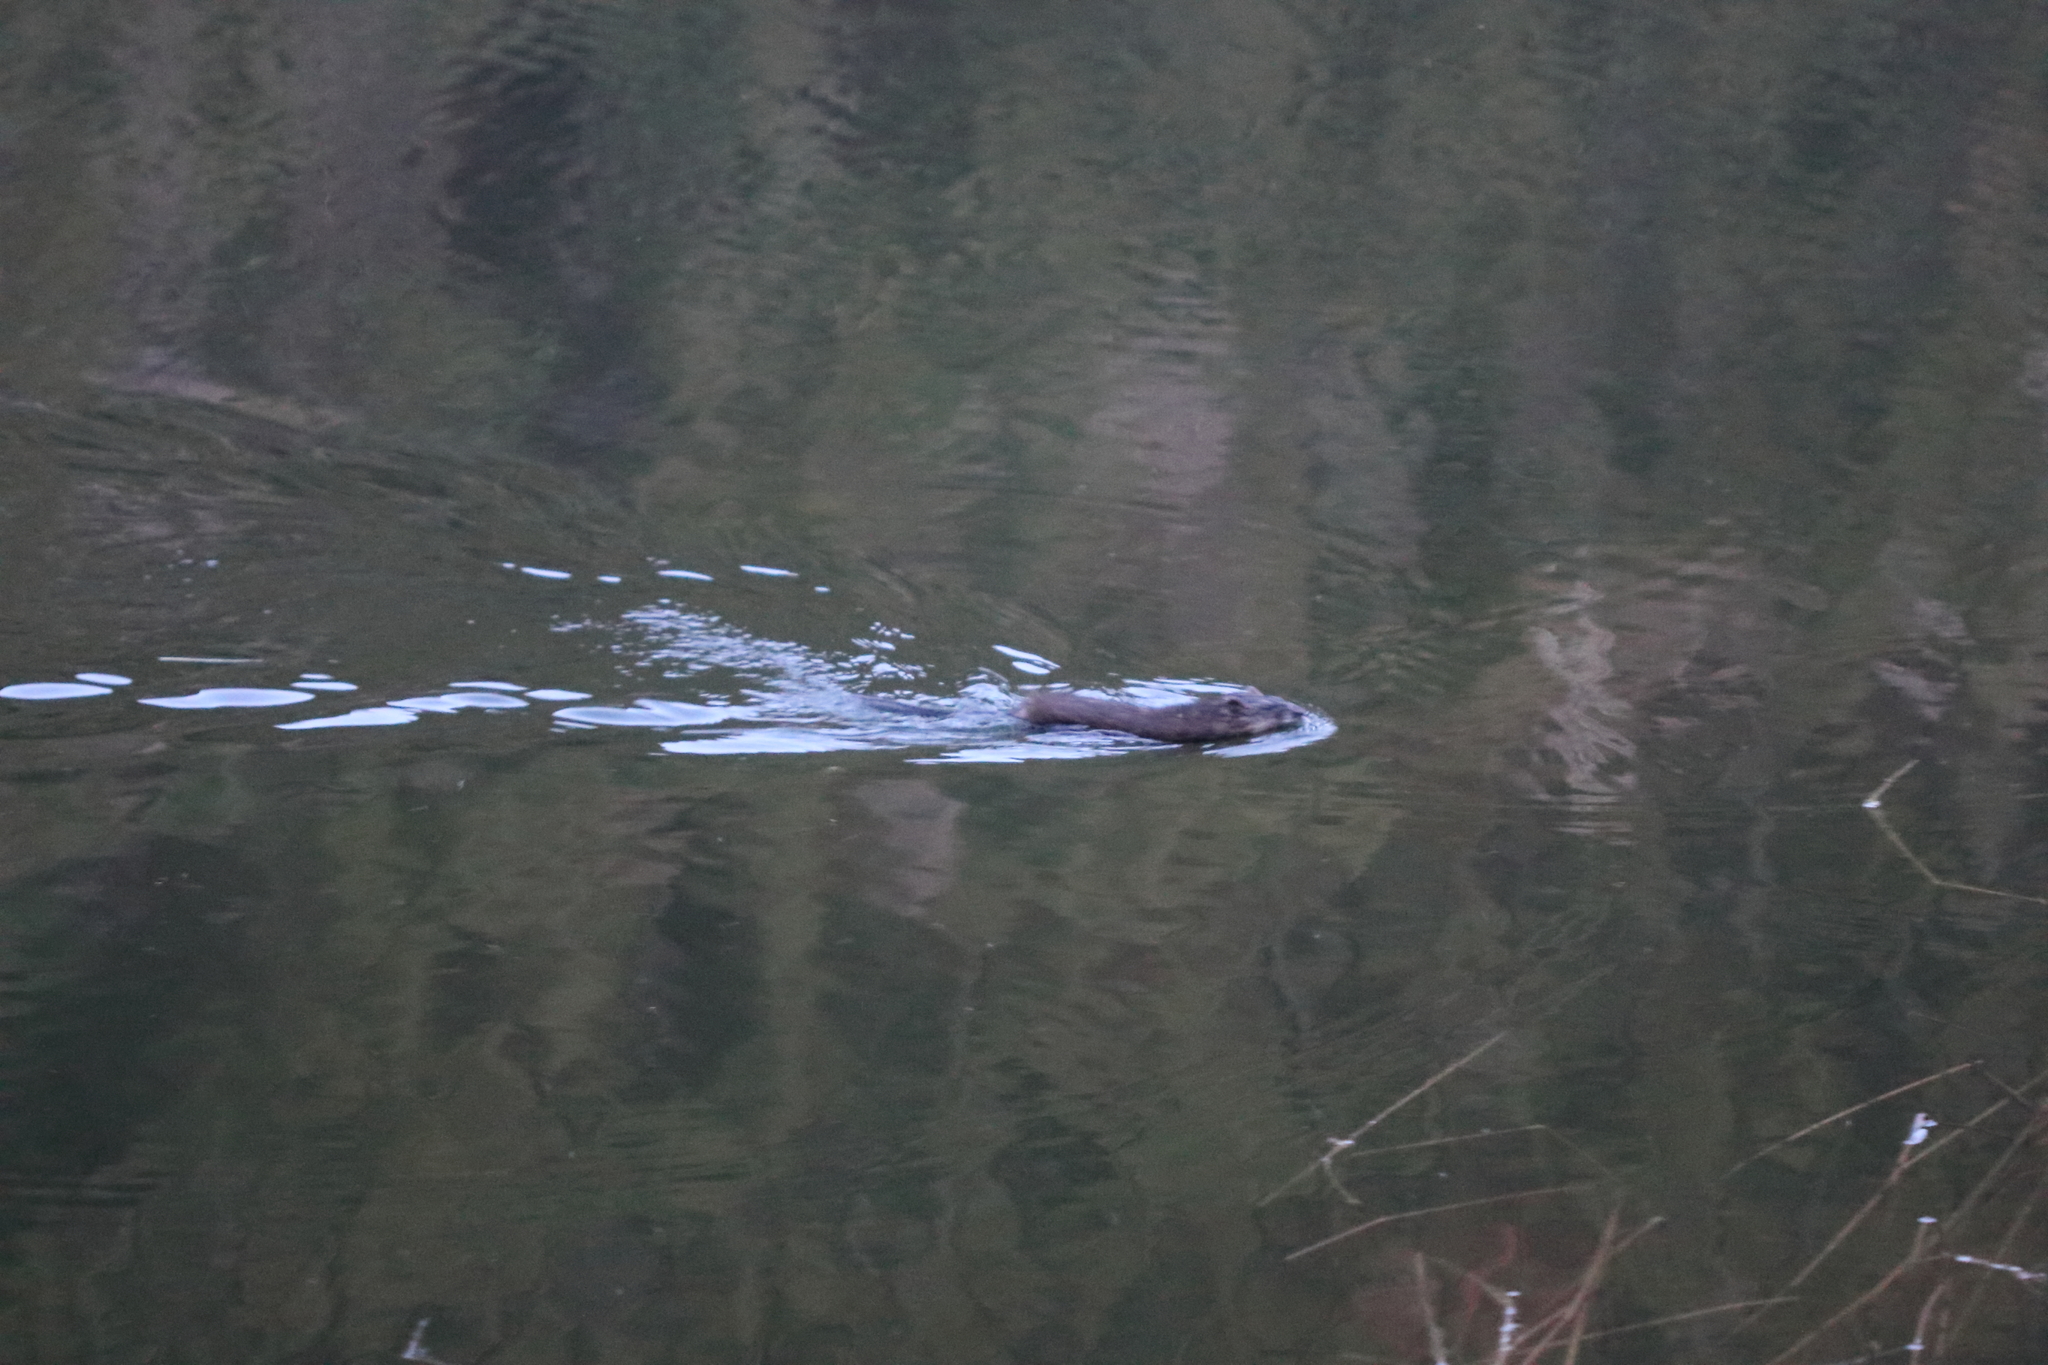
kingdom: Animalia
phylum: Chordata
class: Mammalia
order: Rodentia
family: Cricetidae
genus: Ondatra
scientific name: Ondatra zibethicus
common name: Muskrat
